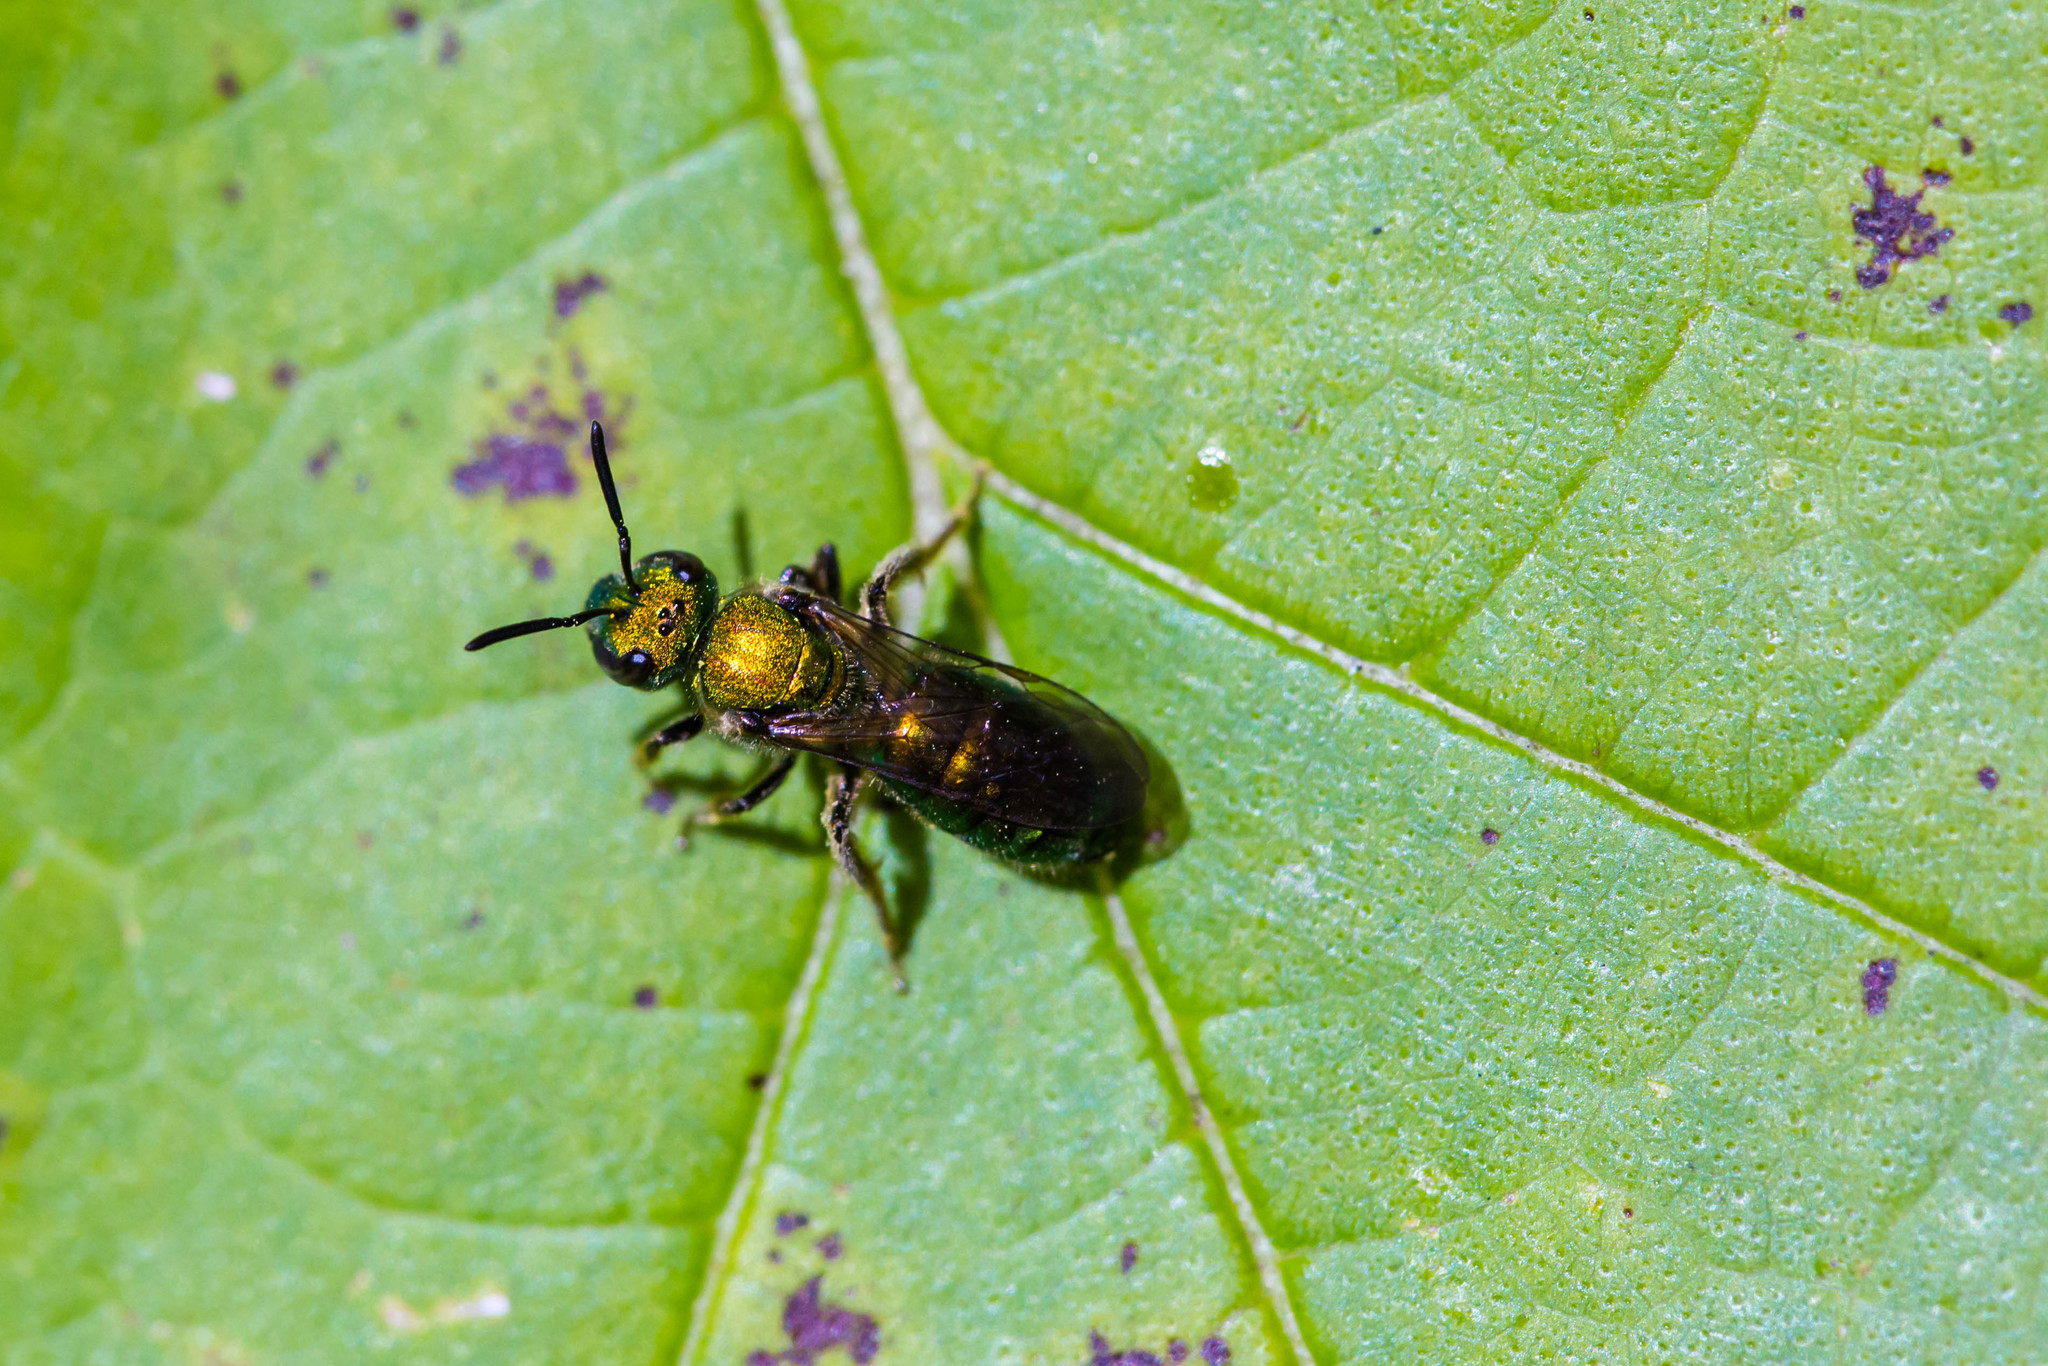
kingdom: Animalia
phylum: Arthropoda
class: Insecta
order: Hymenoptera
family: Halictidae
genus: Augochlora
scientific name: Augochlora pura
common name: Pure green sweat bee
